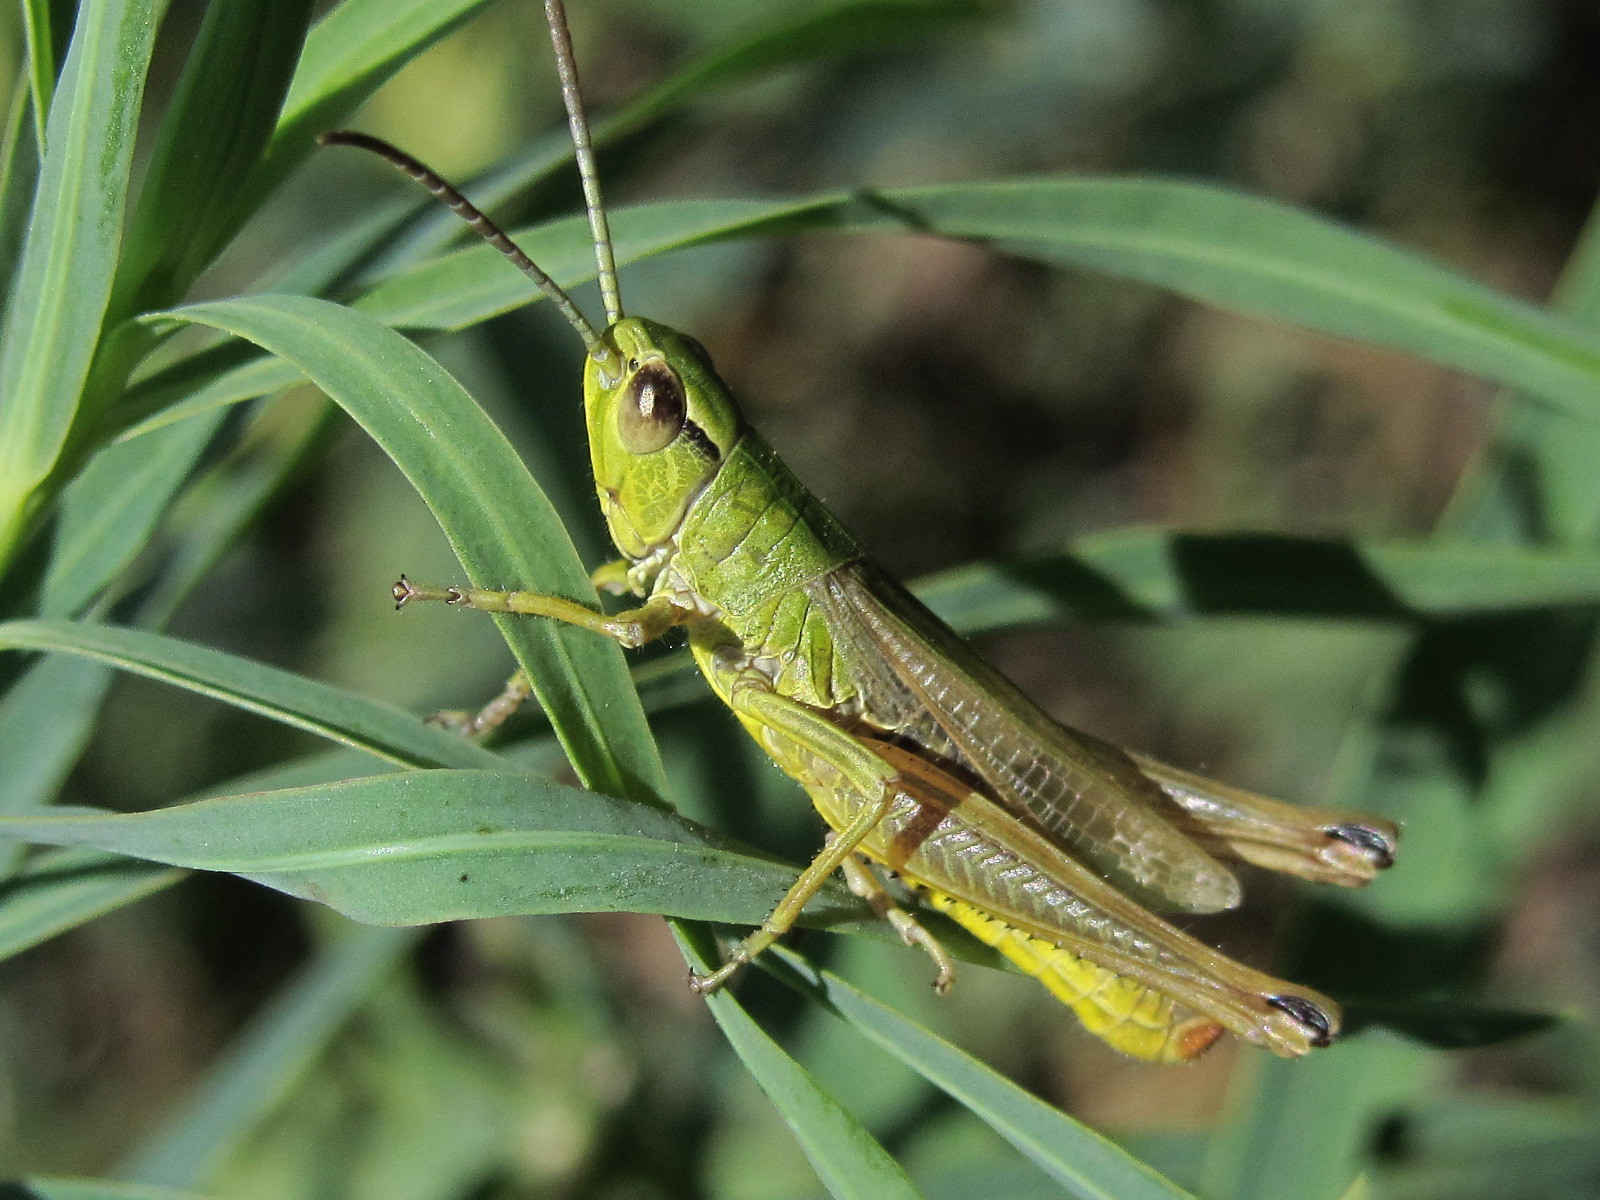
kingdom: Animalia
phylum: Arthropoda
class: Insecta
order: Orthoptera
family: Acrididae
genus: Pseudochorthippus
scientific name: Pseudochorthippus parallelus
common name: Meadow grasshopper
